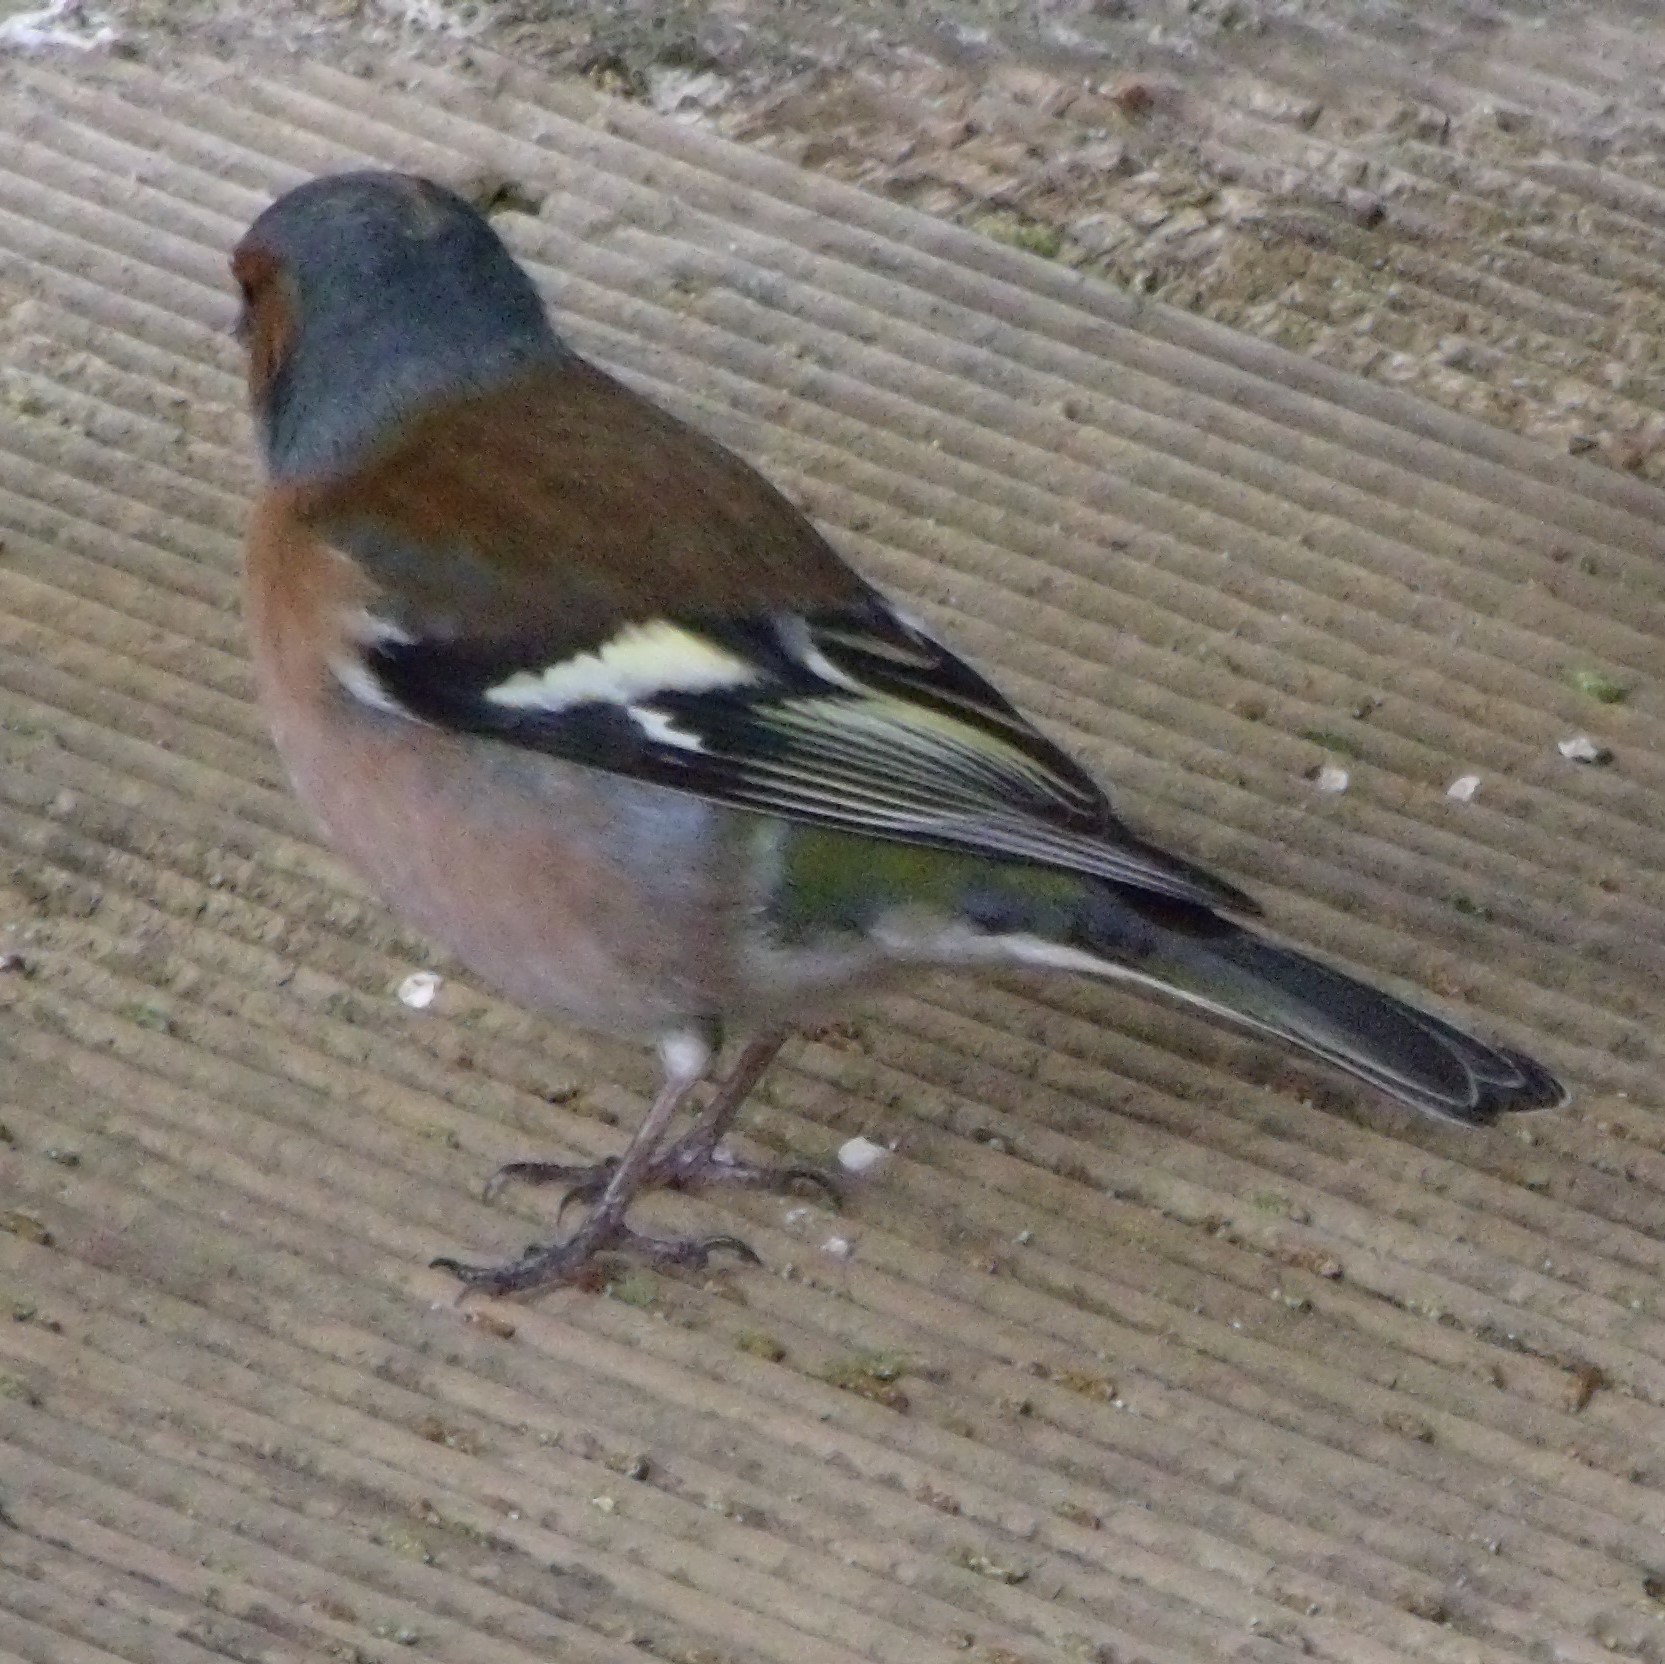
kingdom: Animalia
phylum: Chordata
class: Aves
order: Passeriformes
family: Fringillidae
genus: Fringilla
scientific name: Fringilla coelebs
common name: Common chaffinch
